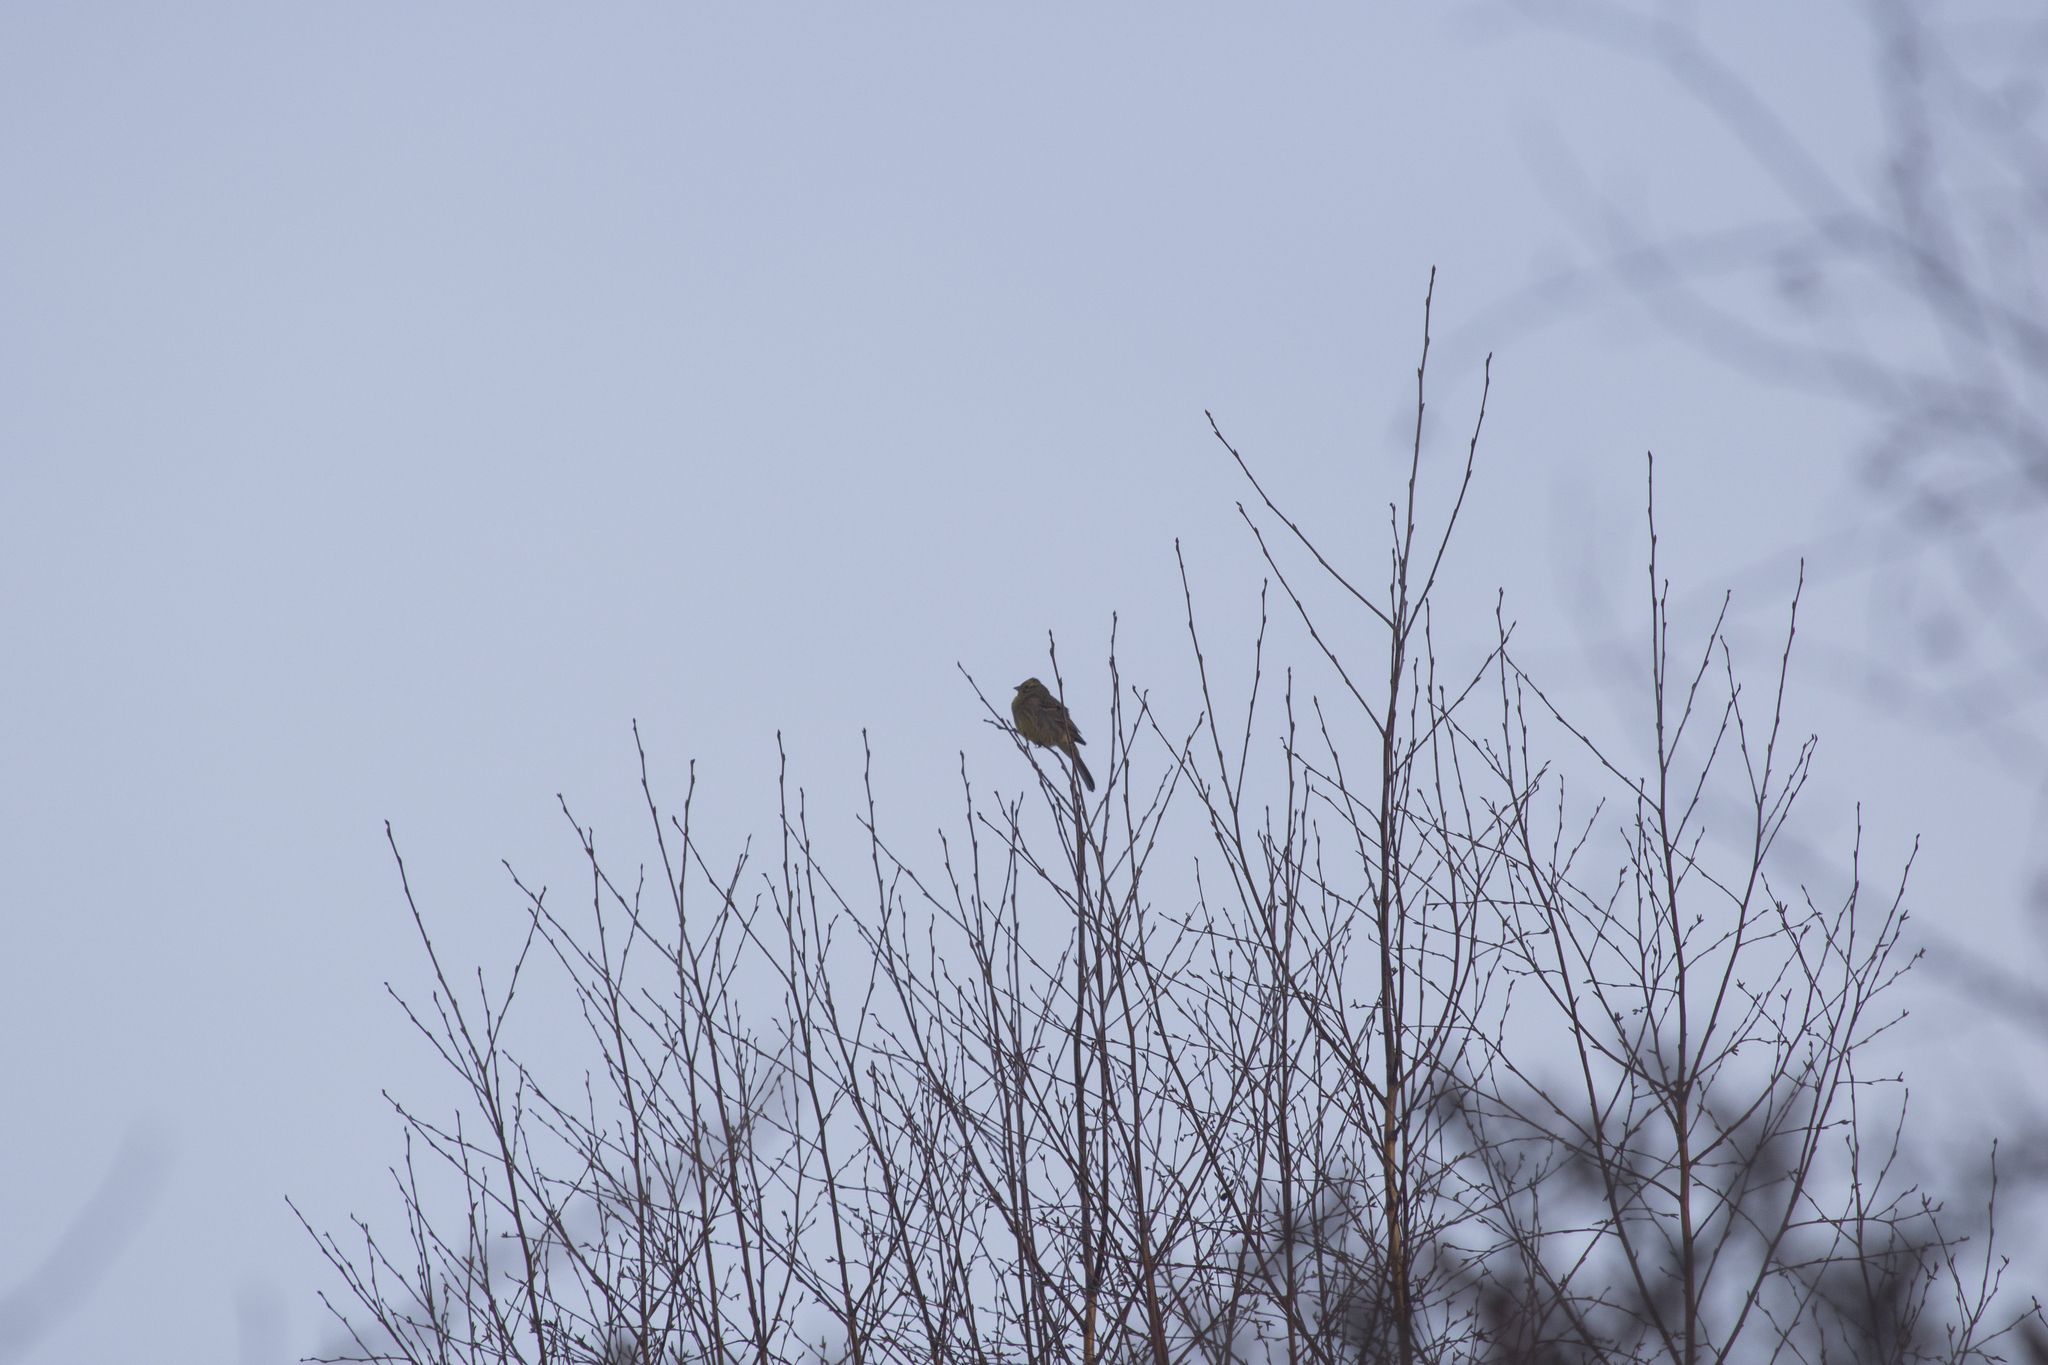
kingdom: Animalia
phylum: Chordata
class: Aves
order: Passeriformes
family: Emberizidae
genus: Emberiza
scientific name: Emberiza citrinella
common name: Yellowhammer
